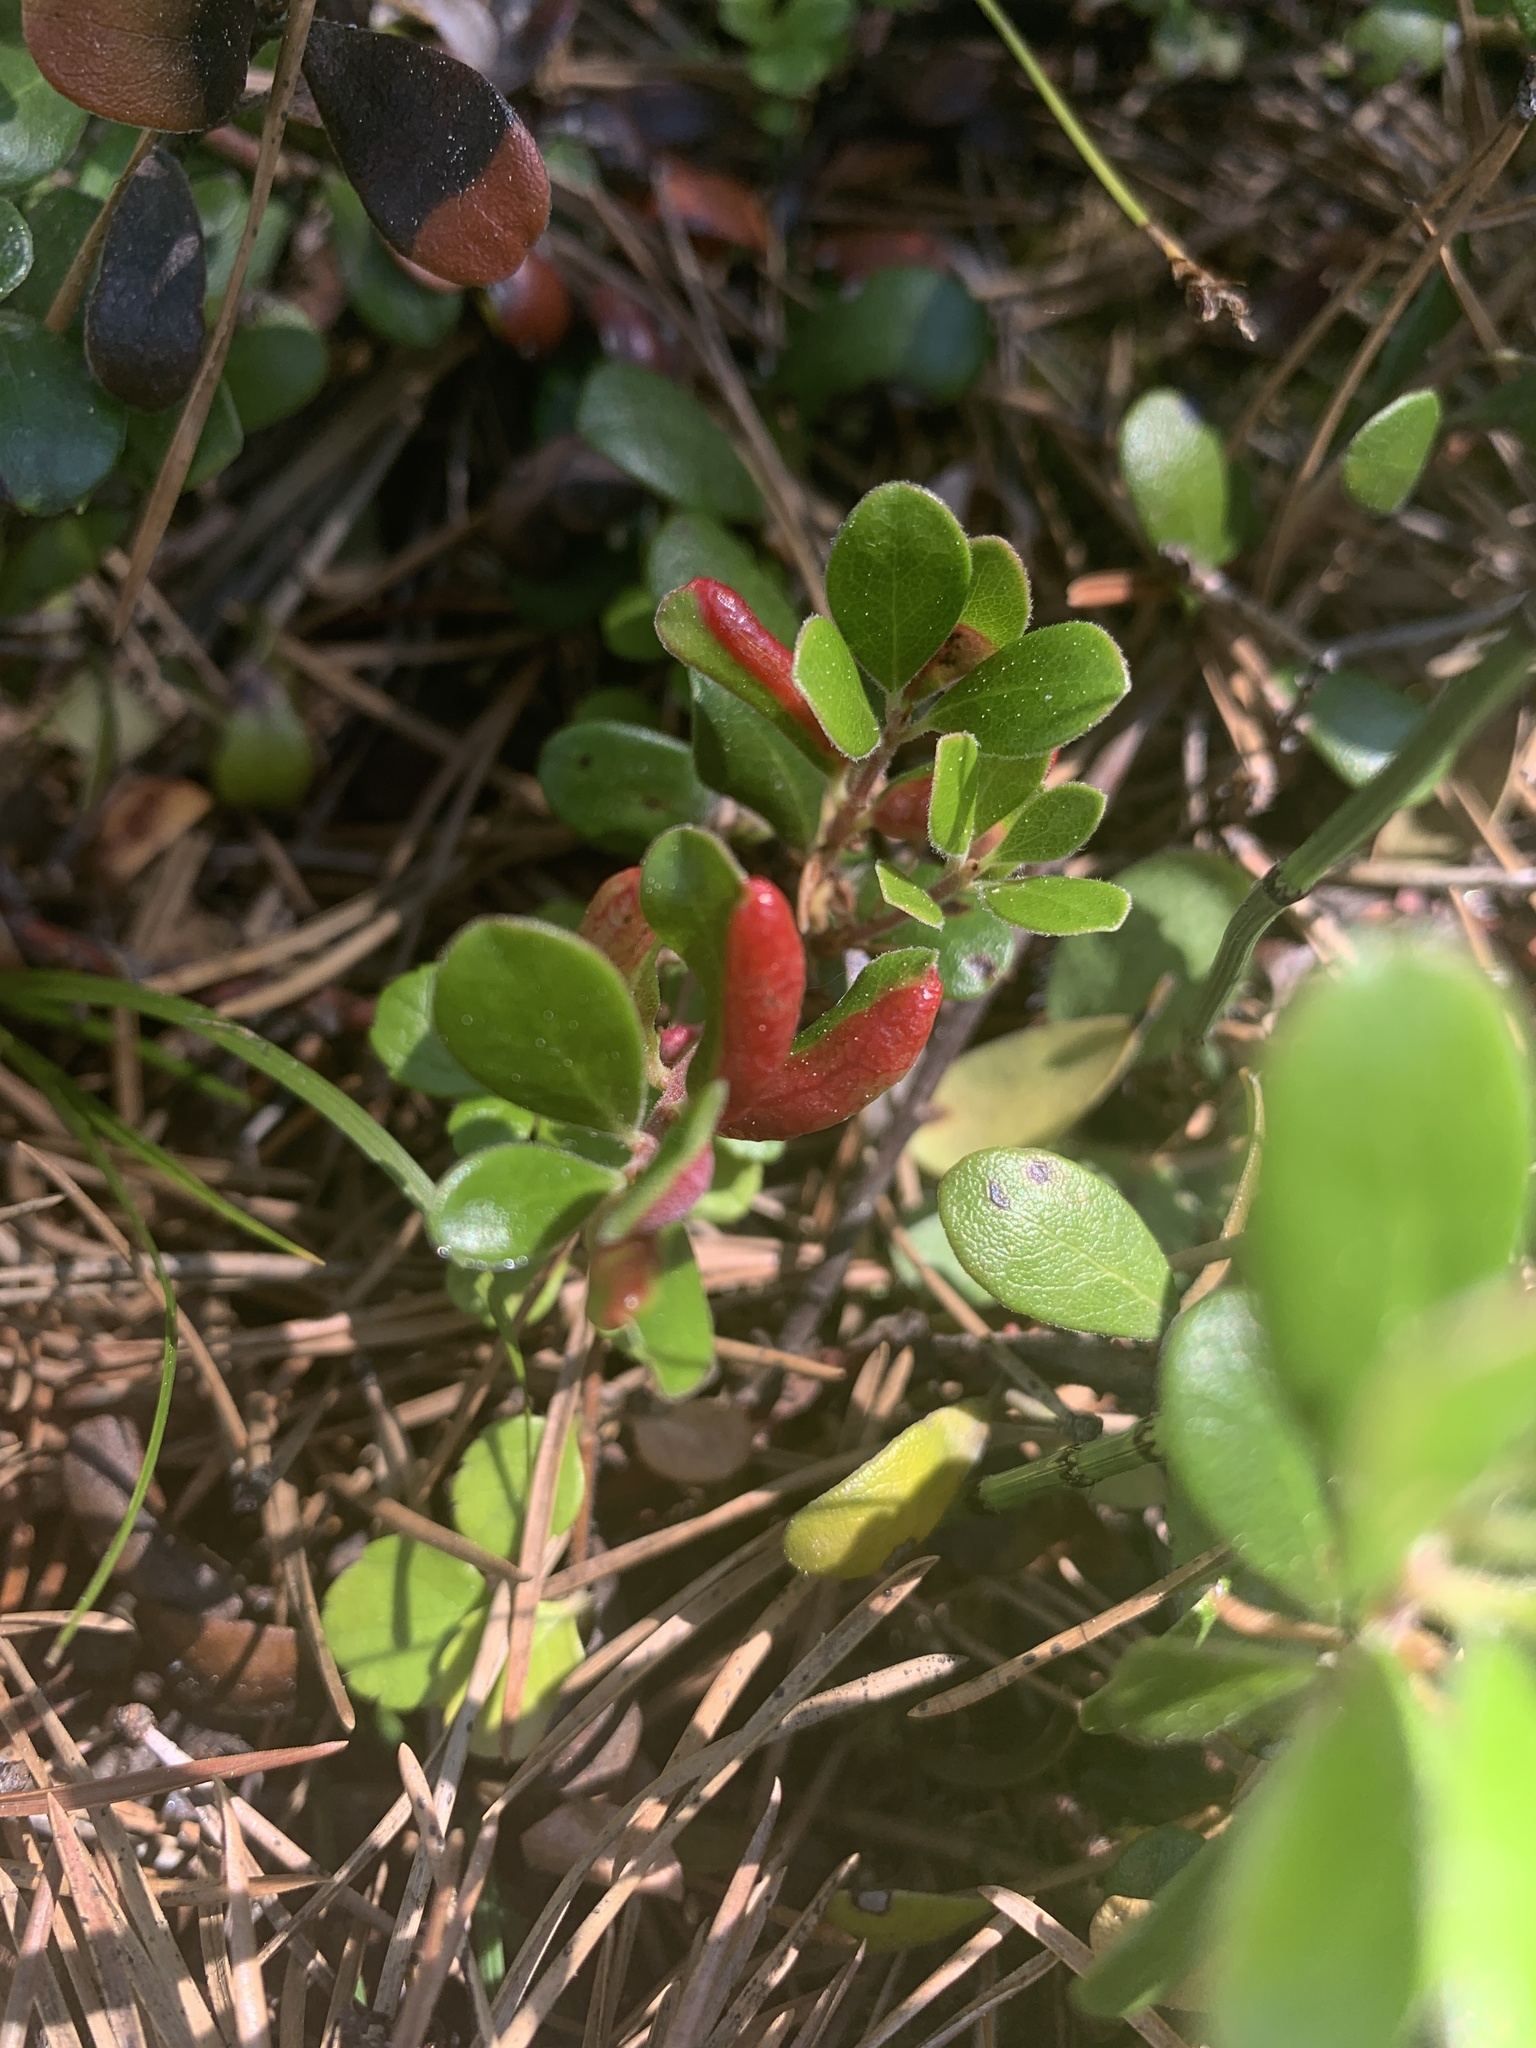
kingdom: Plantae
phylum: Tracheophyta
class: Magnoliopsida
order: Ericales
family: Ericaceae
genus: Arctostaphylos
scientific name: Arctostaphylos uva-ursi
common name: Bearberry
